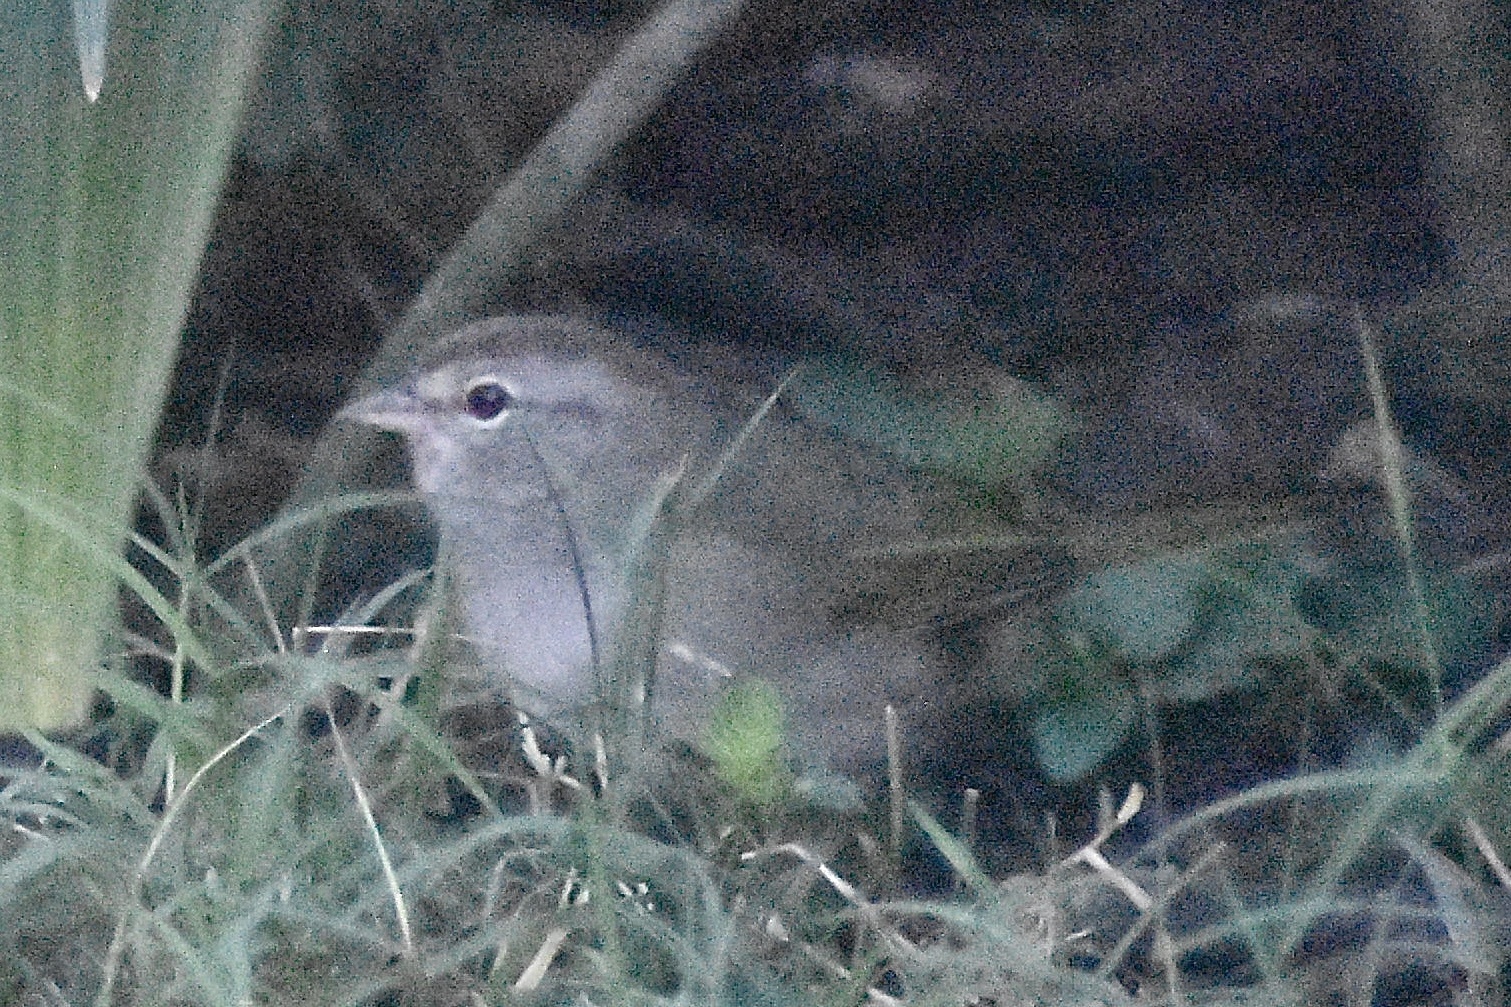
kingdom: Animalia
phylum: Chordata
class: Aves
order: Passeriformes
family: Passerellidae
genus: Arremonops
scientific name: Arremonops rufivirgatus
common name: Olive sparrow
